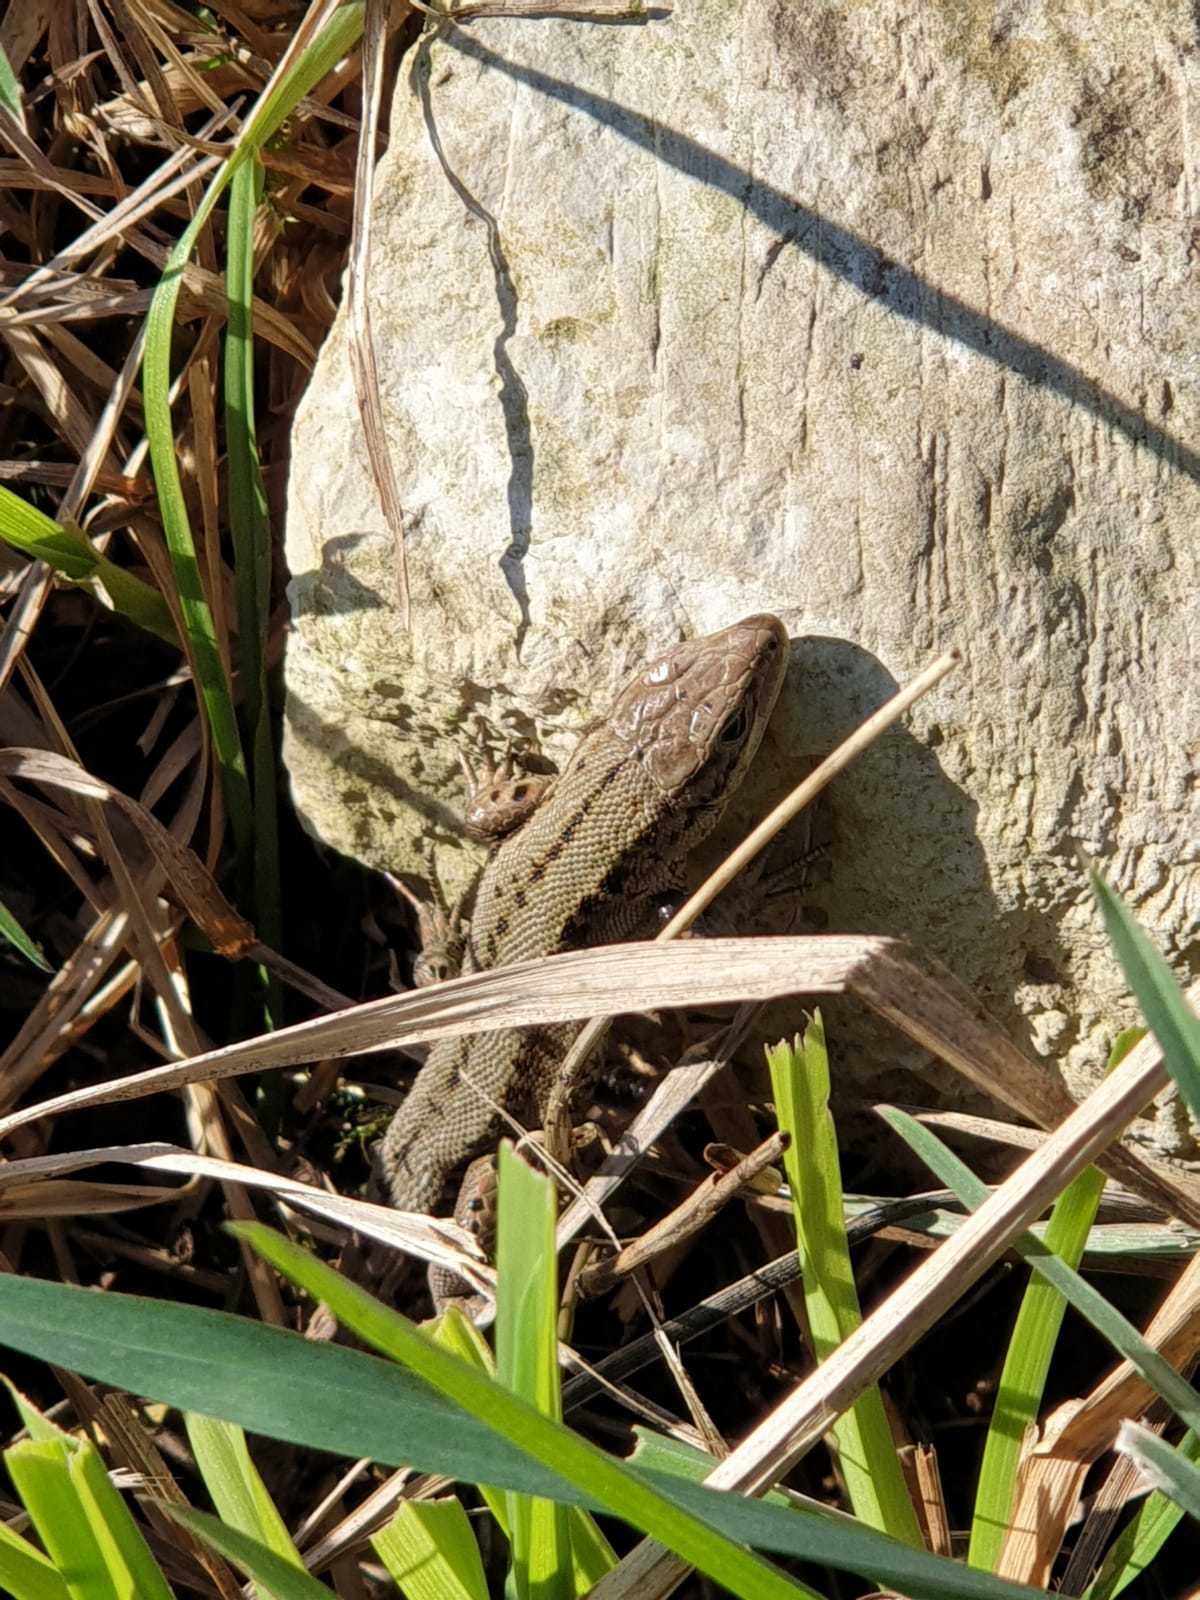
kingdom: Animalia
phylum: Chordata
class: Squamata
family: Lacertidae
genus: Zootoca
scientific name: Zootoca vivipara
